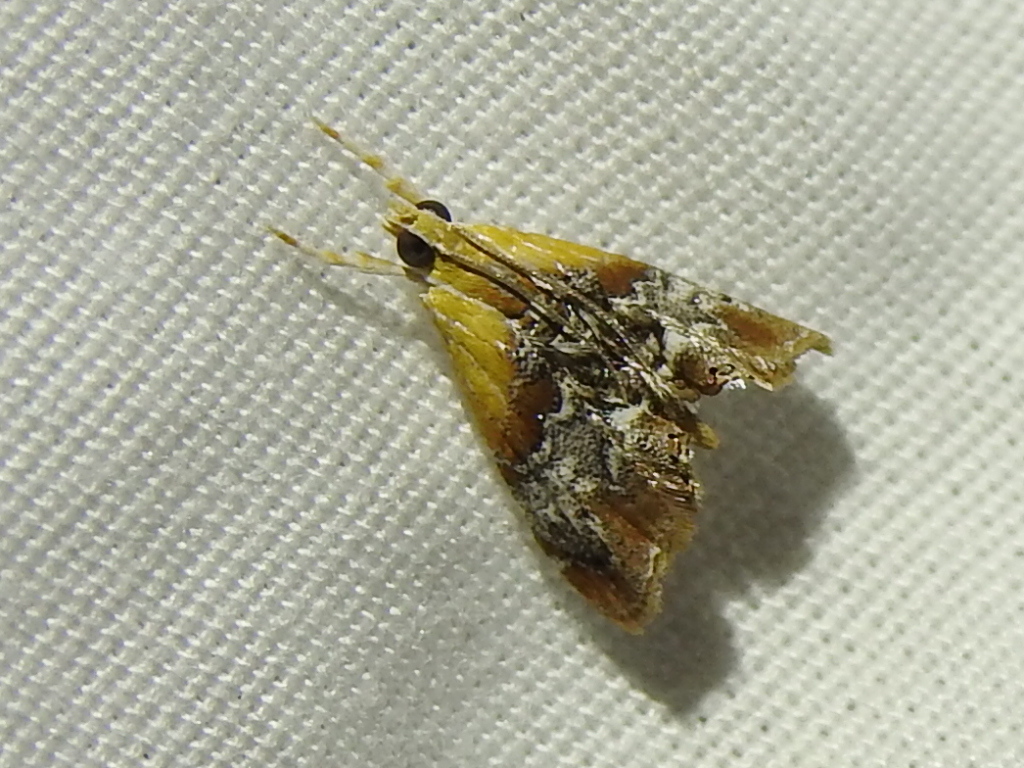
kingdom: Animalia
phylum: Arthropoda
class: Insecta
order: Lepidoptera
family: Crambidae
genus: Dicymolomia
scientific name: Dicymolomia julianalis
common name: Julia's dicymolomia moth
